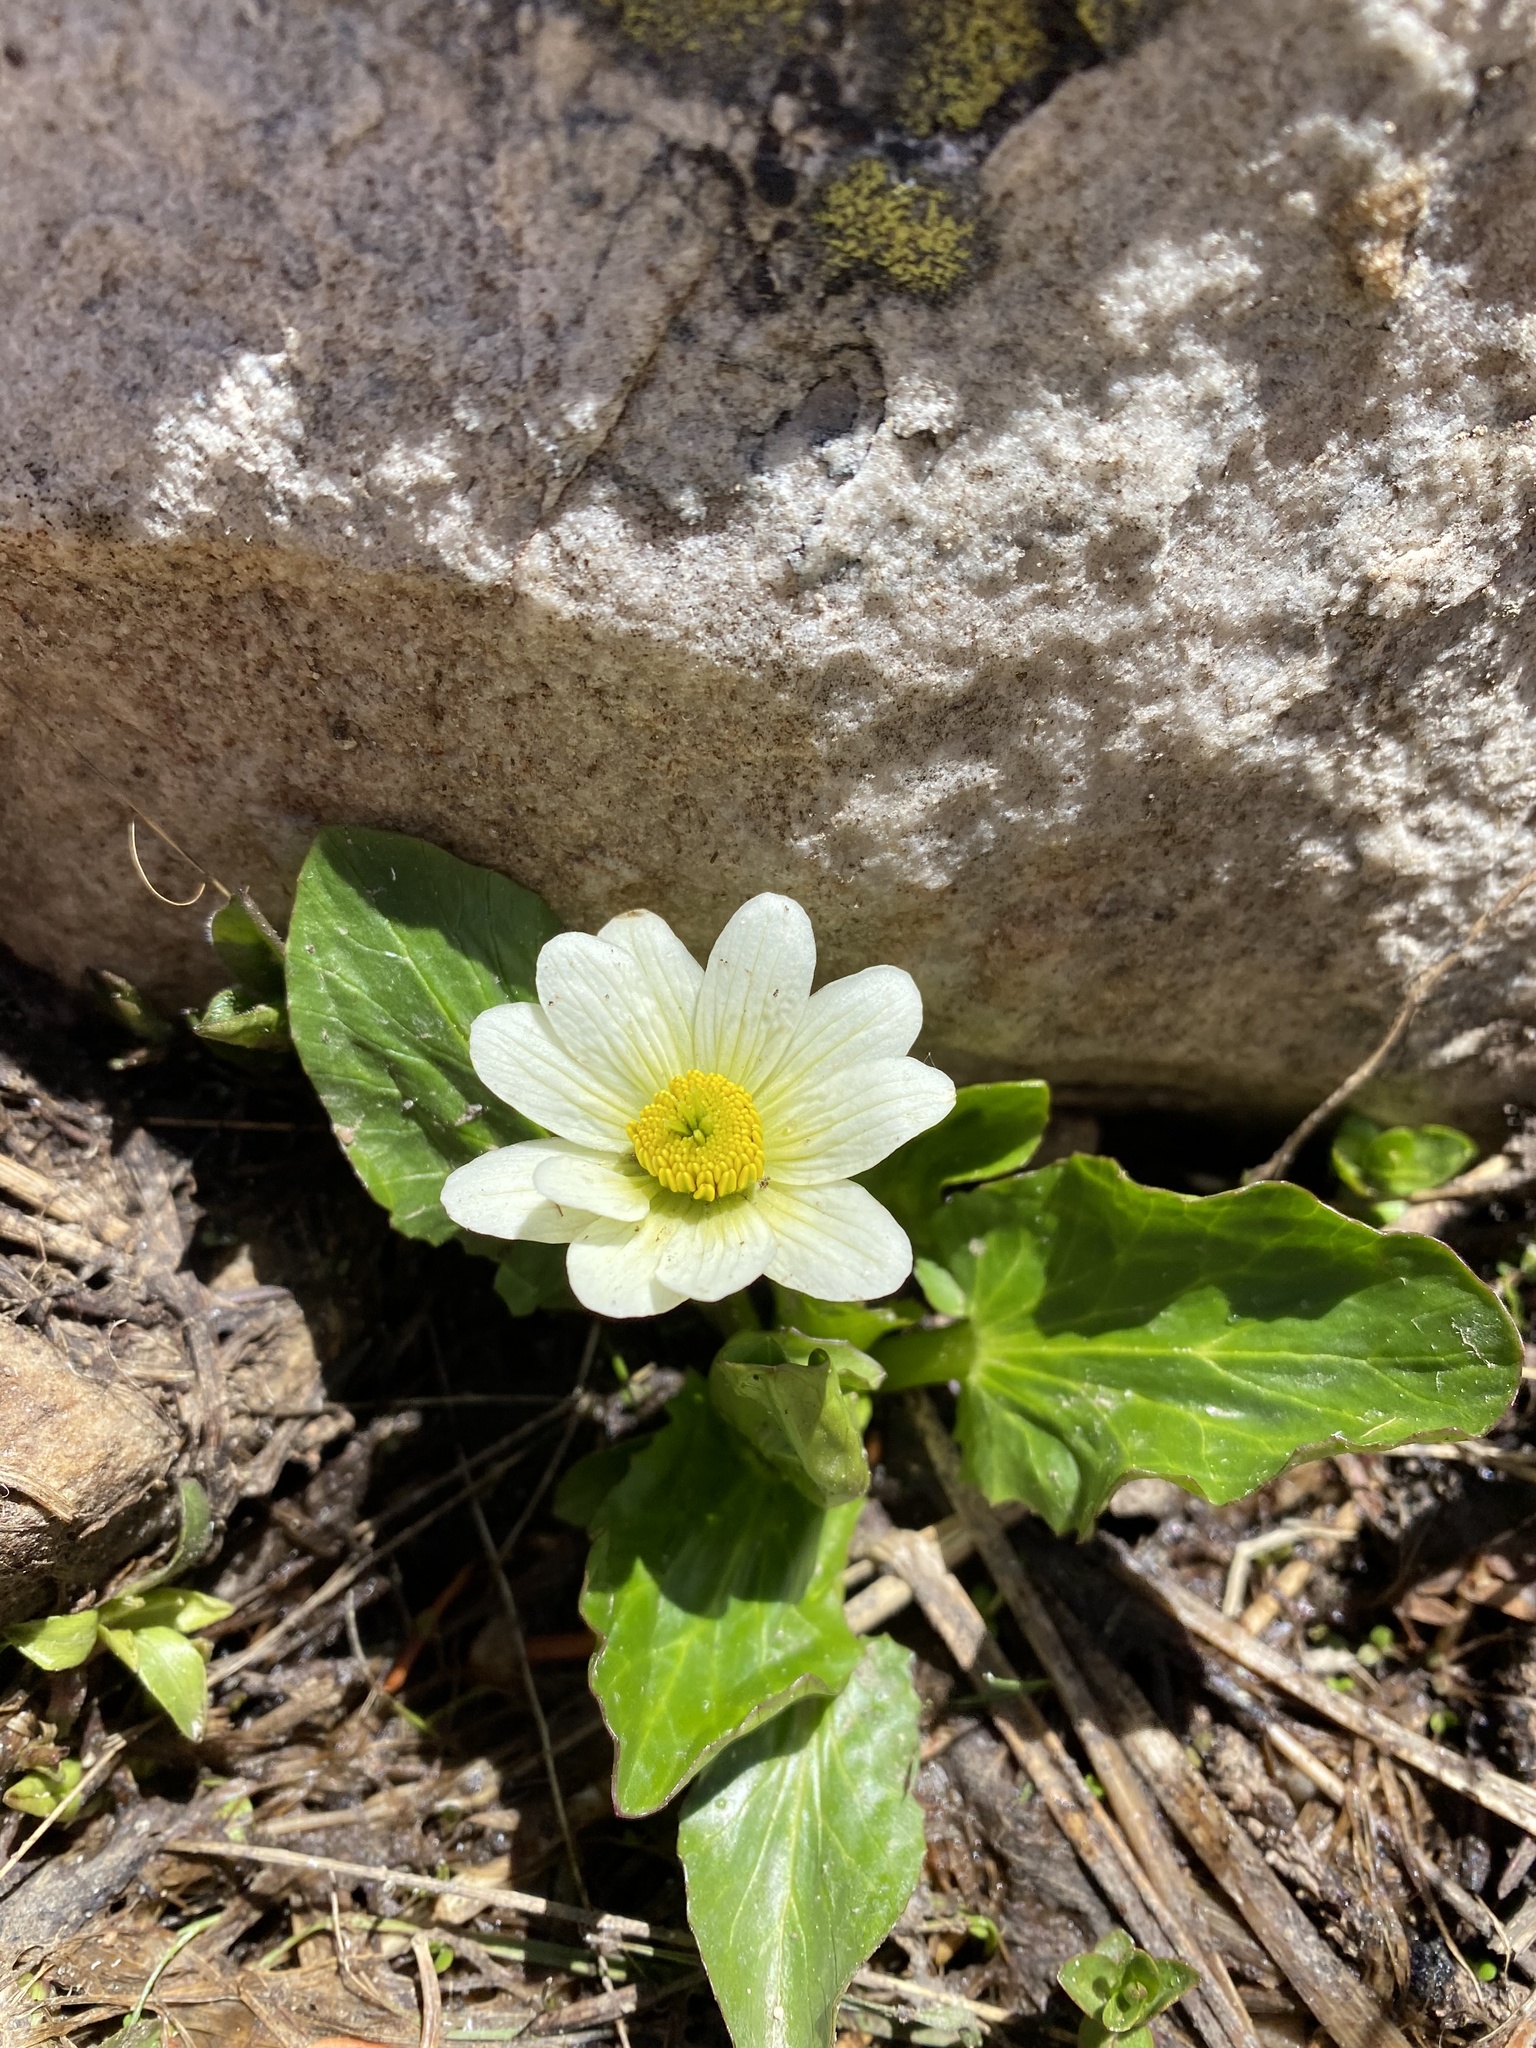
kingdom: Plantae
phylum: Tracheophyta
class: Magnoliopsida
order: Ranunculales
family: Ranunculaceae
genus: Caltha
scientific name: Caltha leptosepala
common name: Elkslip
